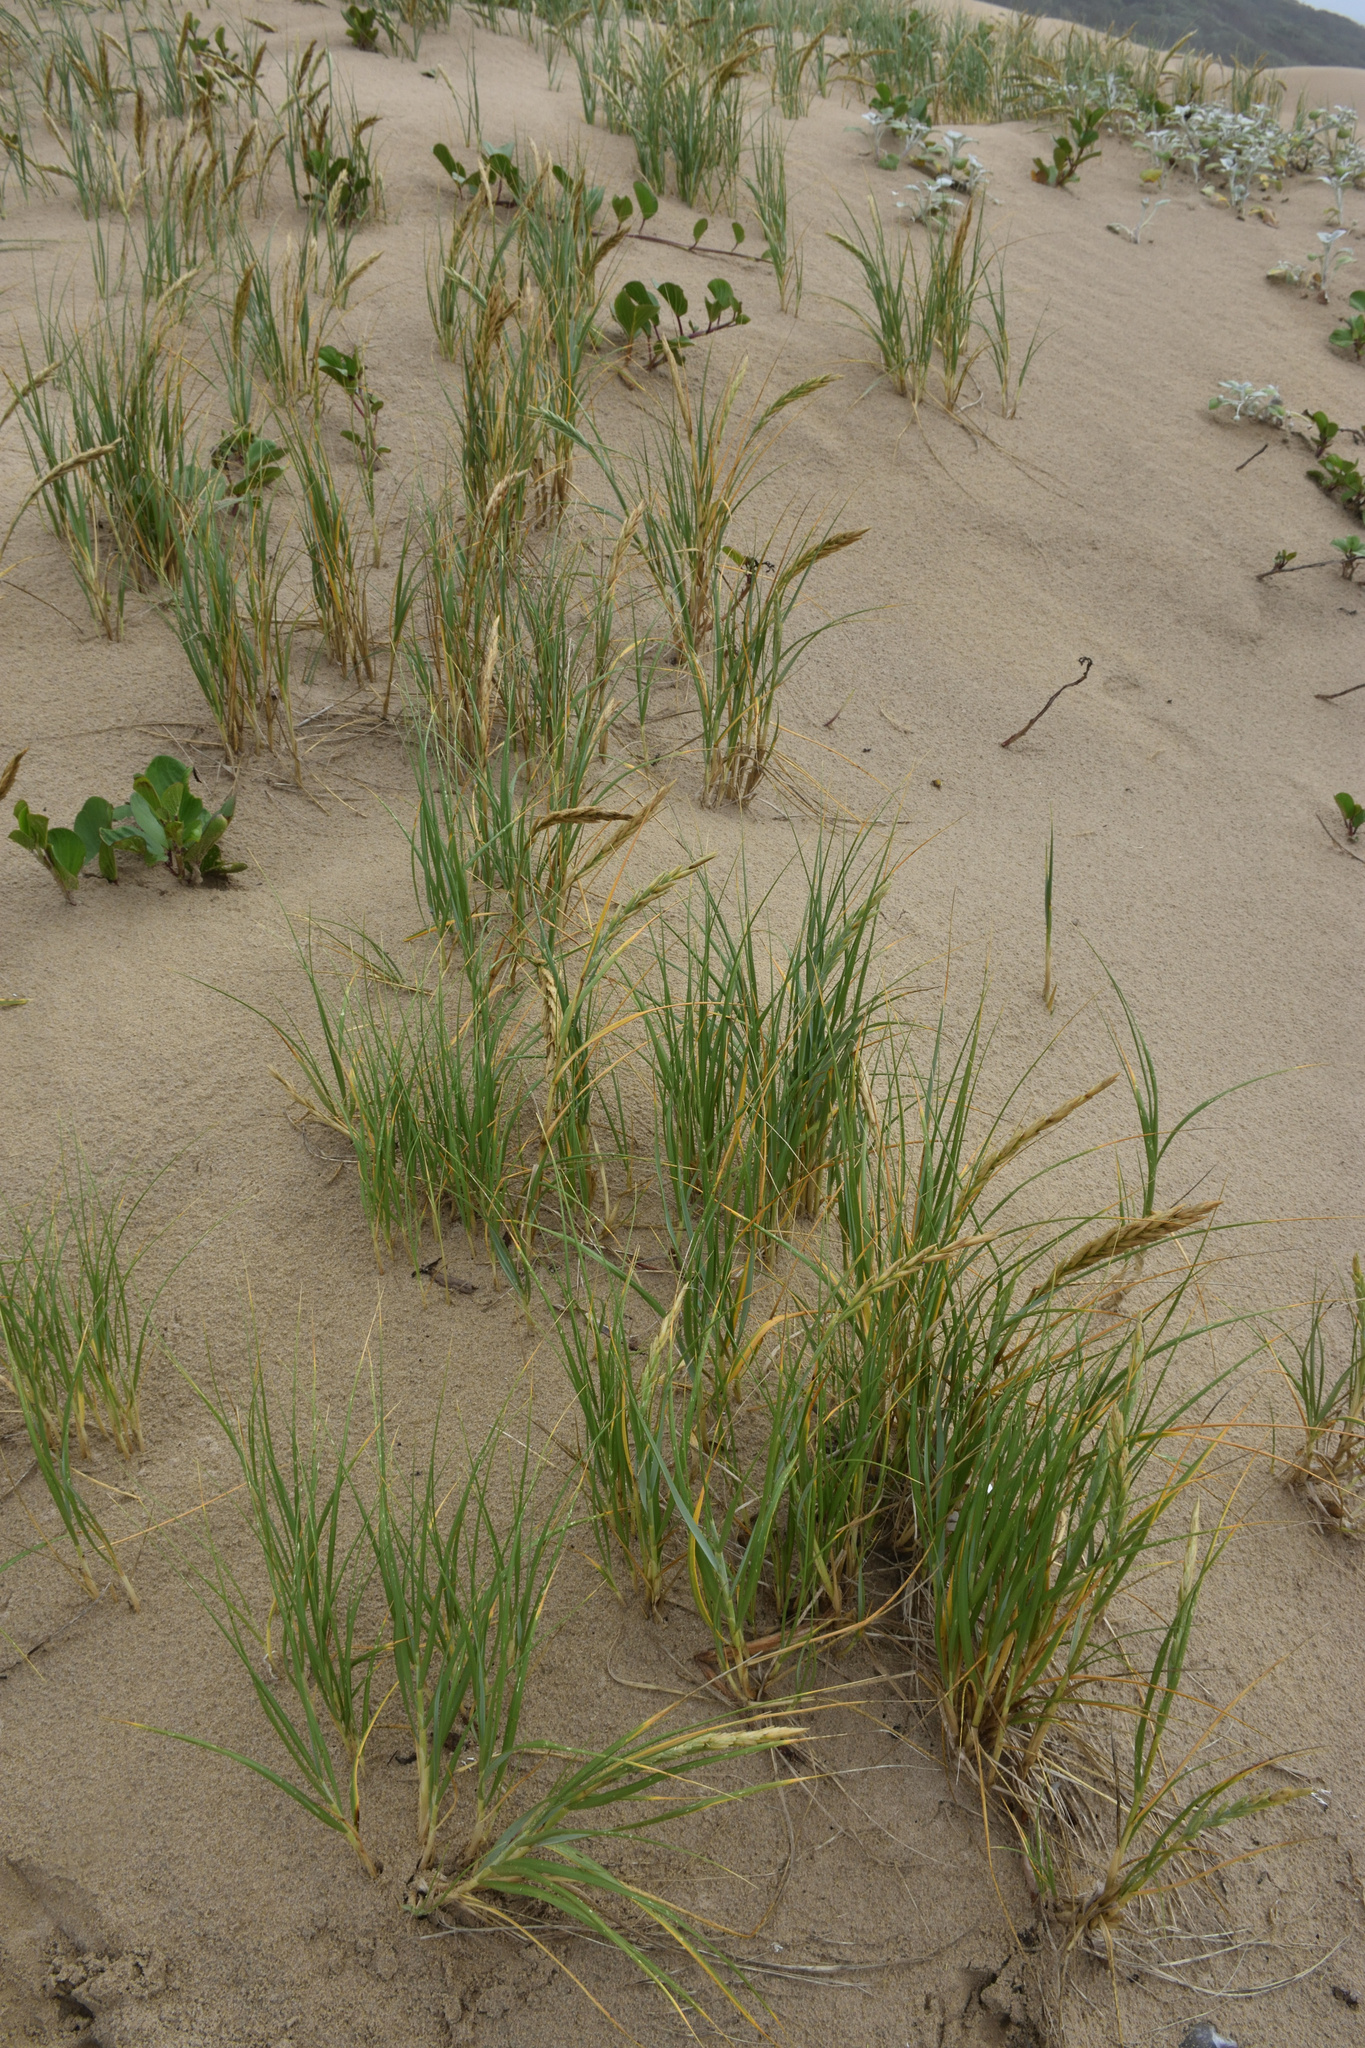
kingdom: Plantae
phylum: Tracheophyta
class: Liliopsida
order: Poales
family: Poaceae
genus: Thinopyrum
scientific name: Thinopyrum distichum
